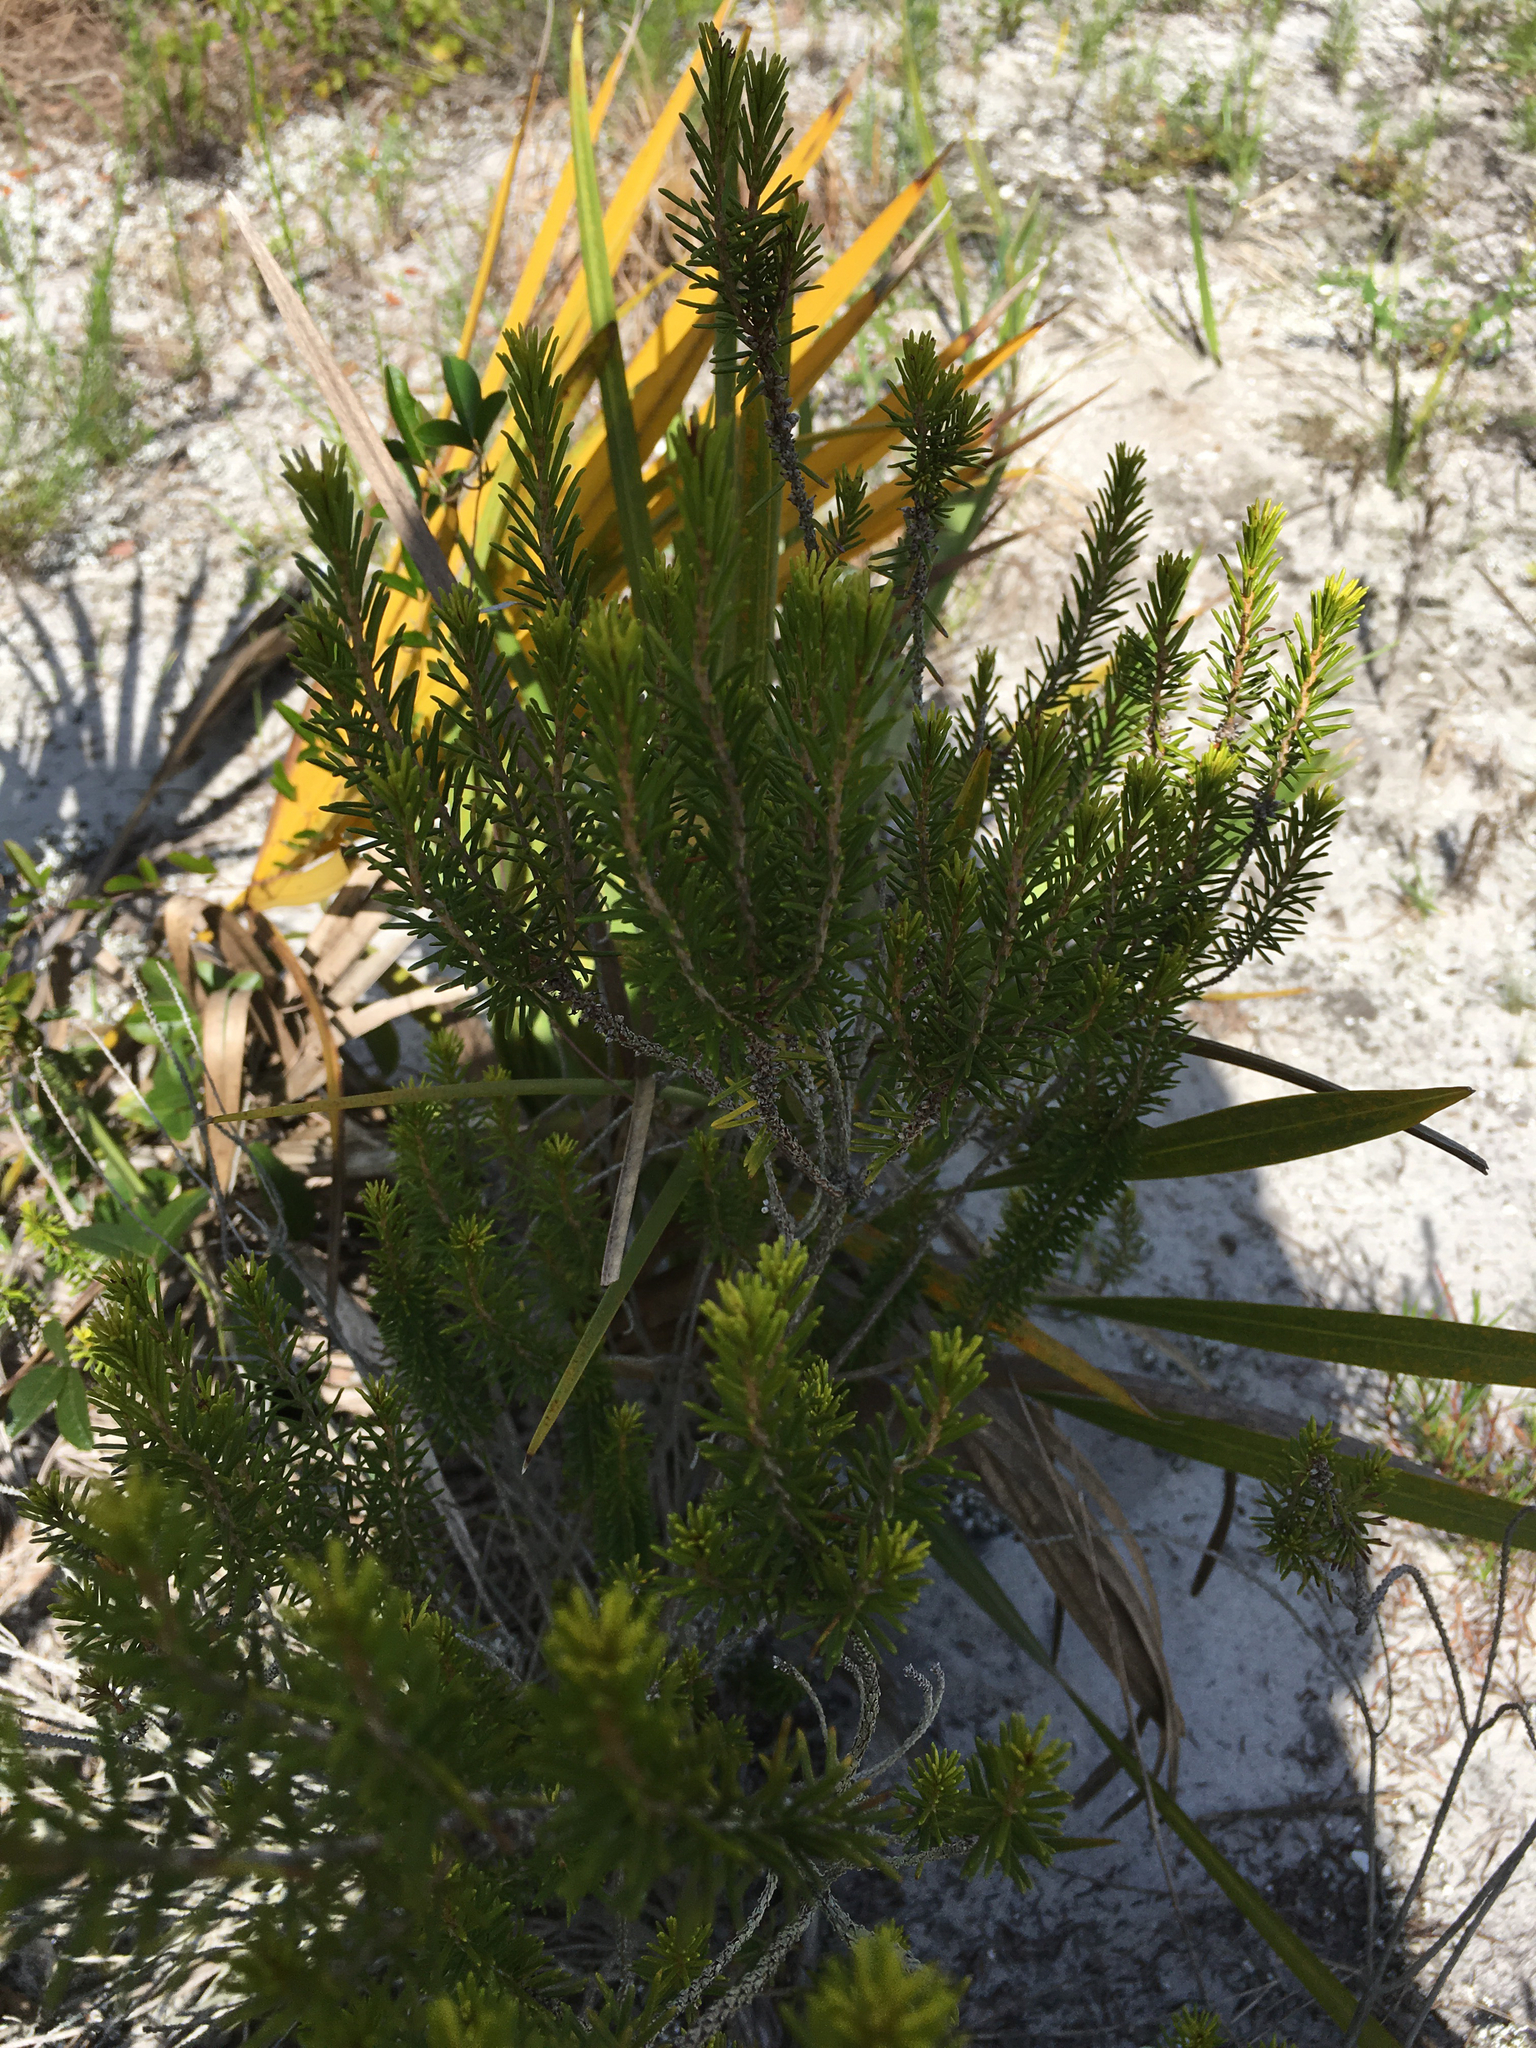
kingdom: Plantae
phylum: Tracheophyta
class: Magnoliopsida
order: Ericales
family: Ericaceae
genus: Ceratiola
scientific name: Ceratiola ericoides
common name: Sandhill-rosemary
